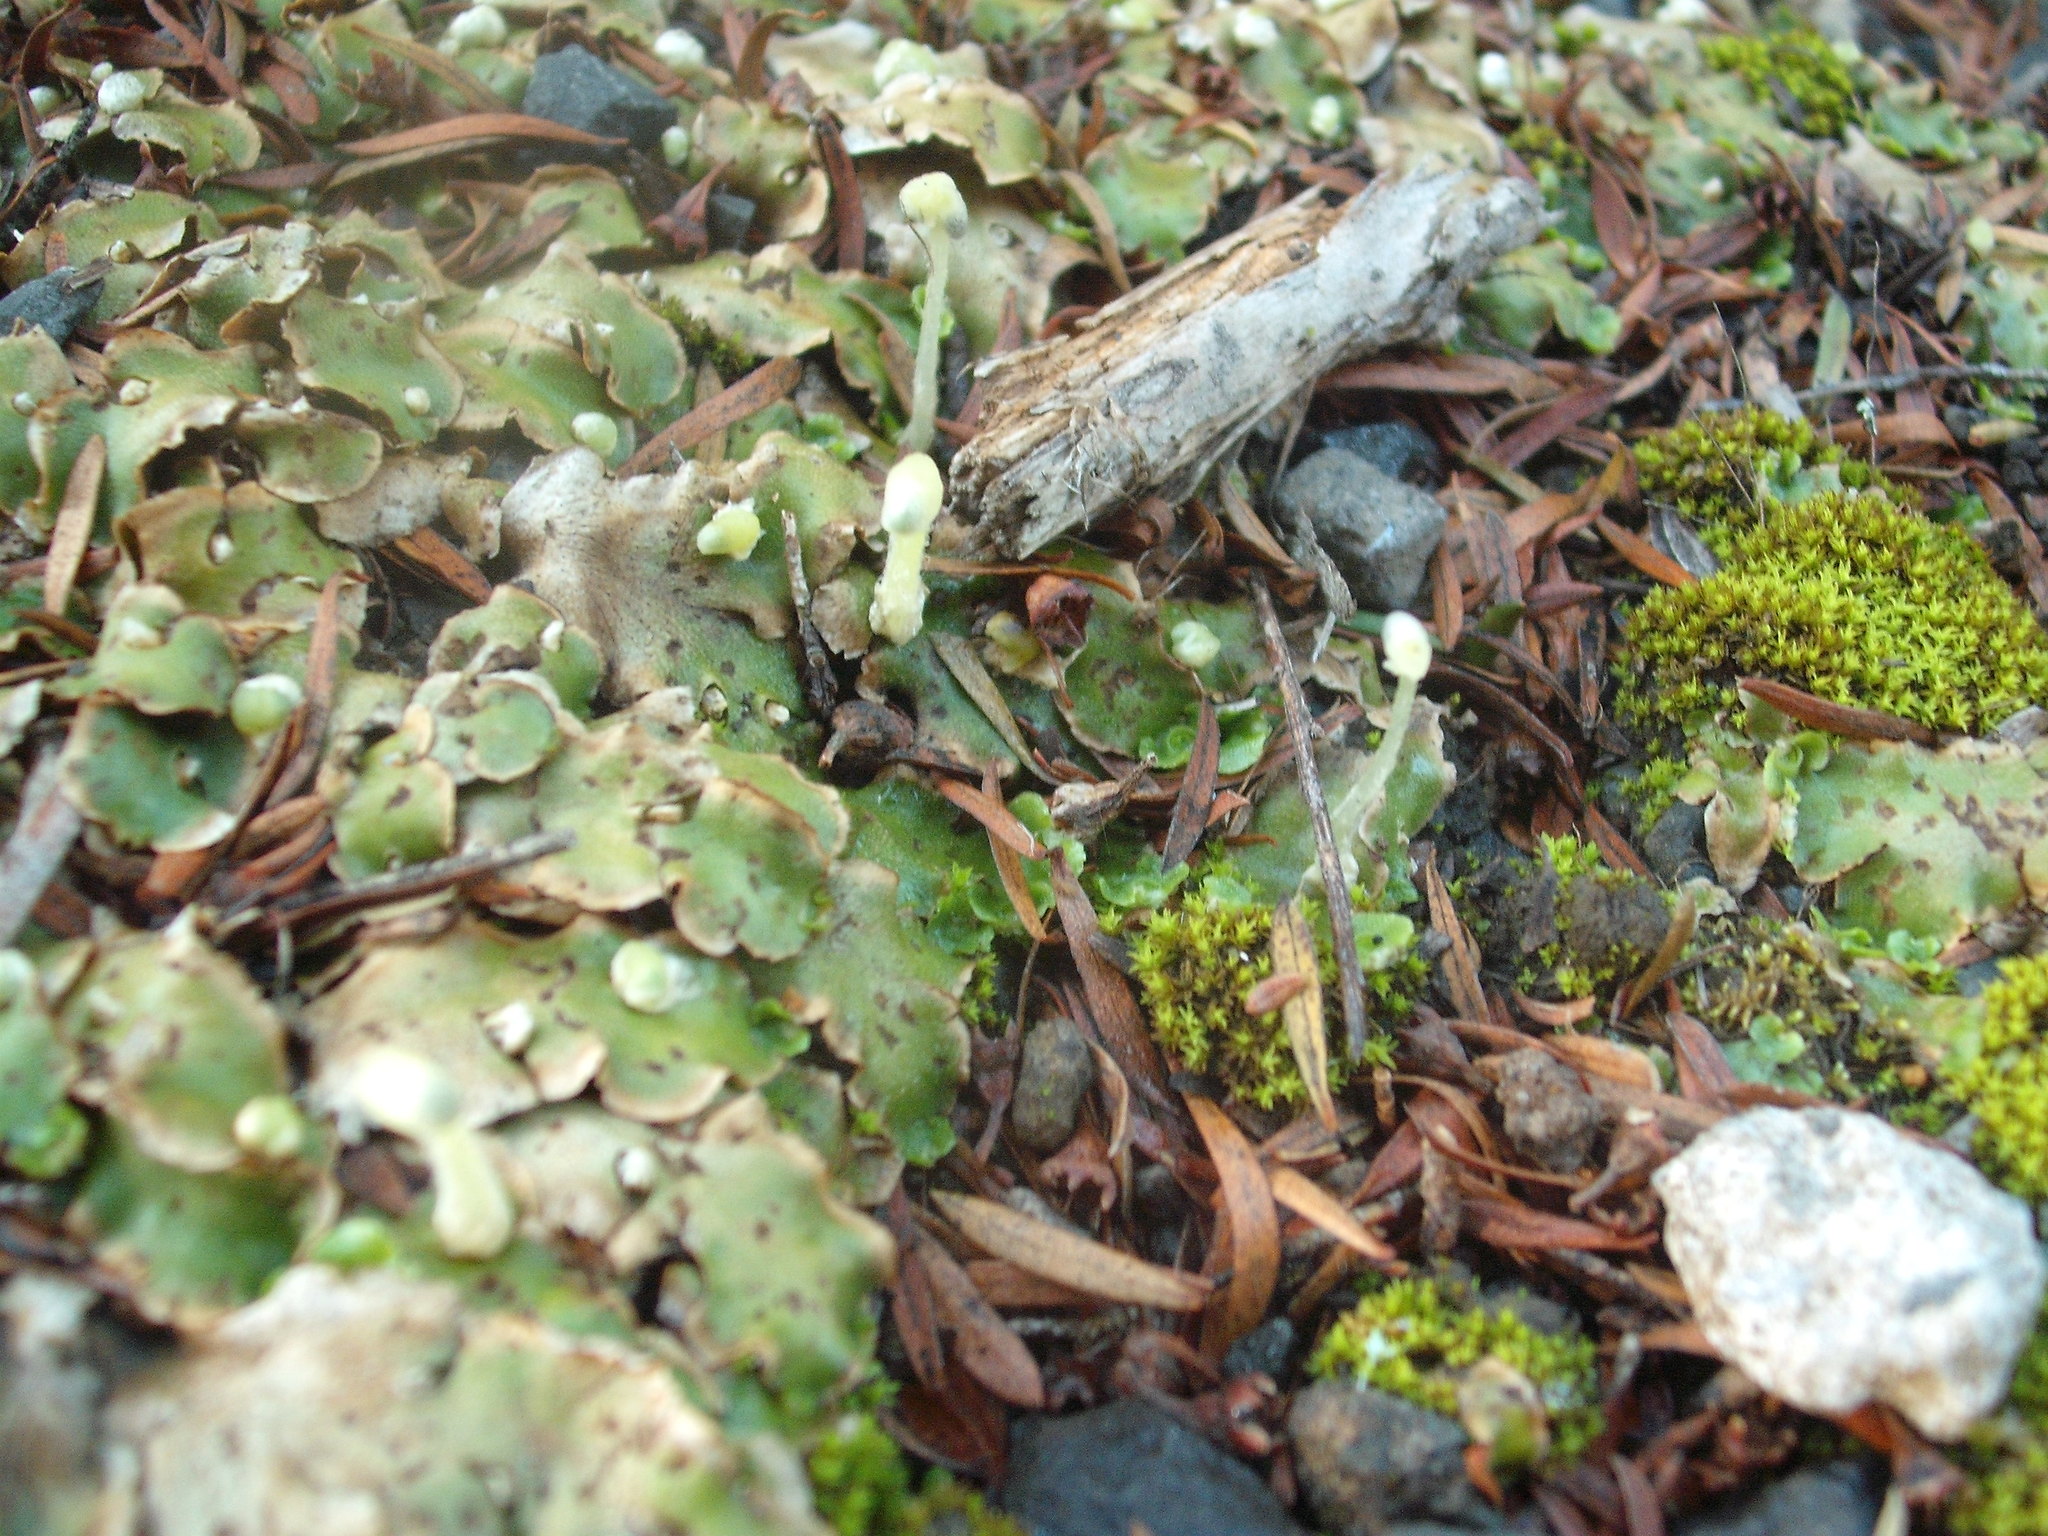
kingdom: Plantae
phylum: Marchantiophyta
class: Marchantiopsida
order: Lunulariales
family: Lunulariaceae
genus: Lunularia
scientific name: Lunularia cruciata
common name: Crescent-cup liverwort
